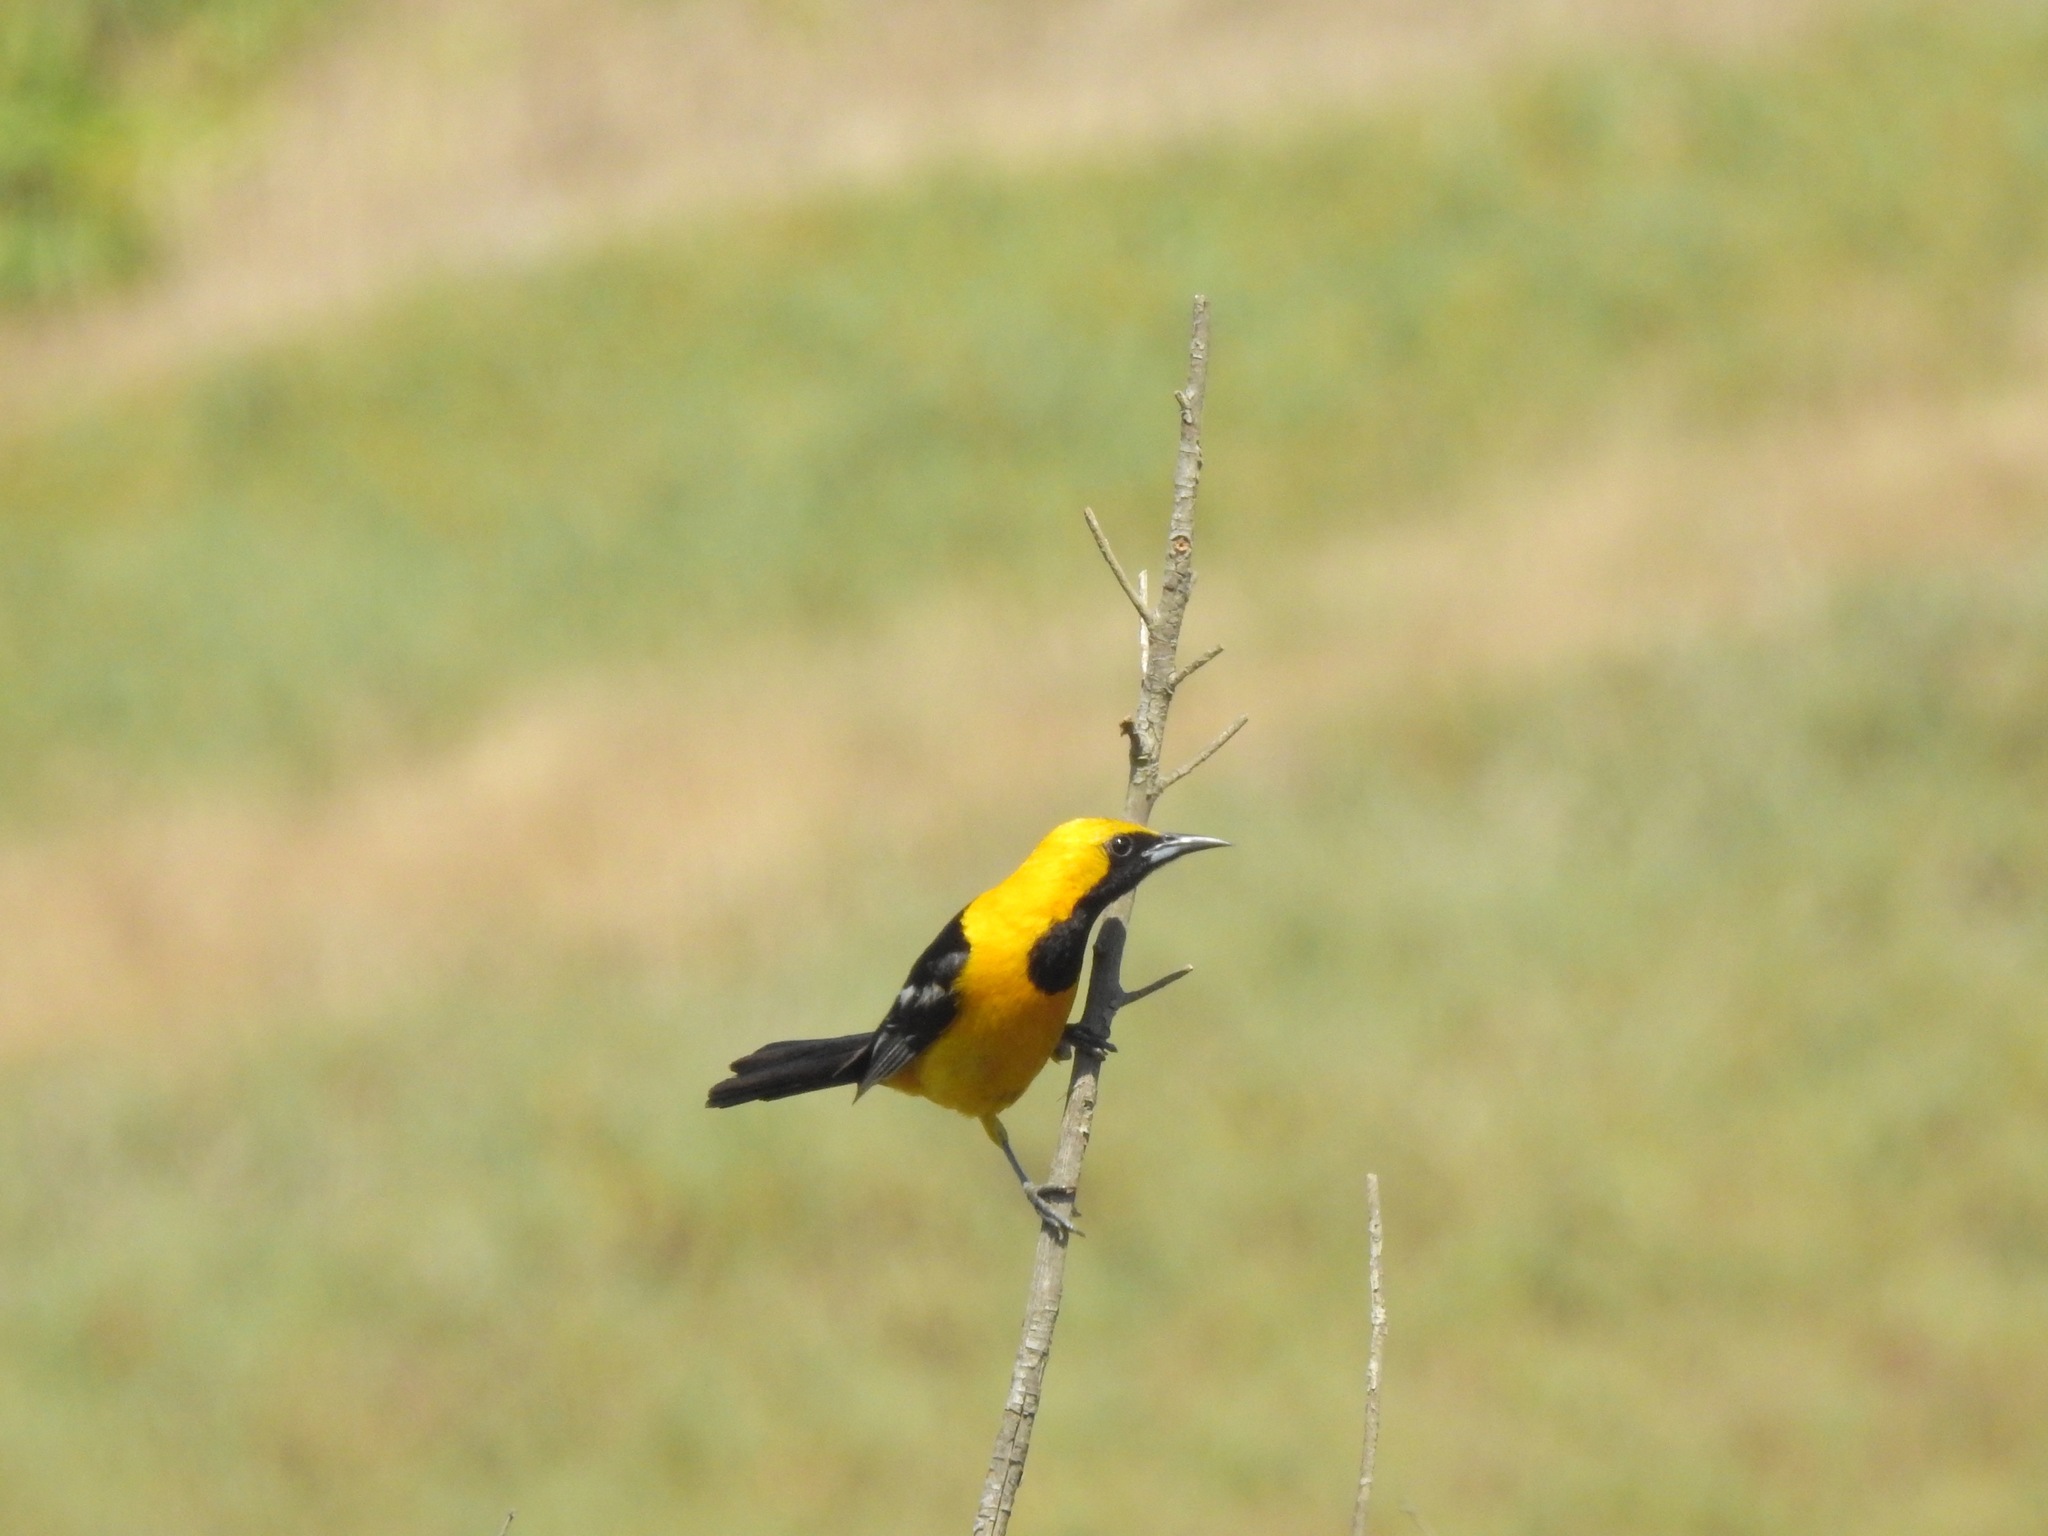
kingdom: Animalia
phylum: Chordata
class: Aves
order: Passeriformes
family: Icteridae
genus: Icterus
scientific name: Icterus cucullatus
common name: Hooded oriole
